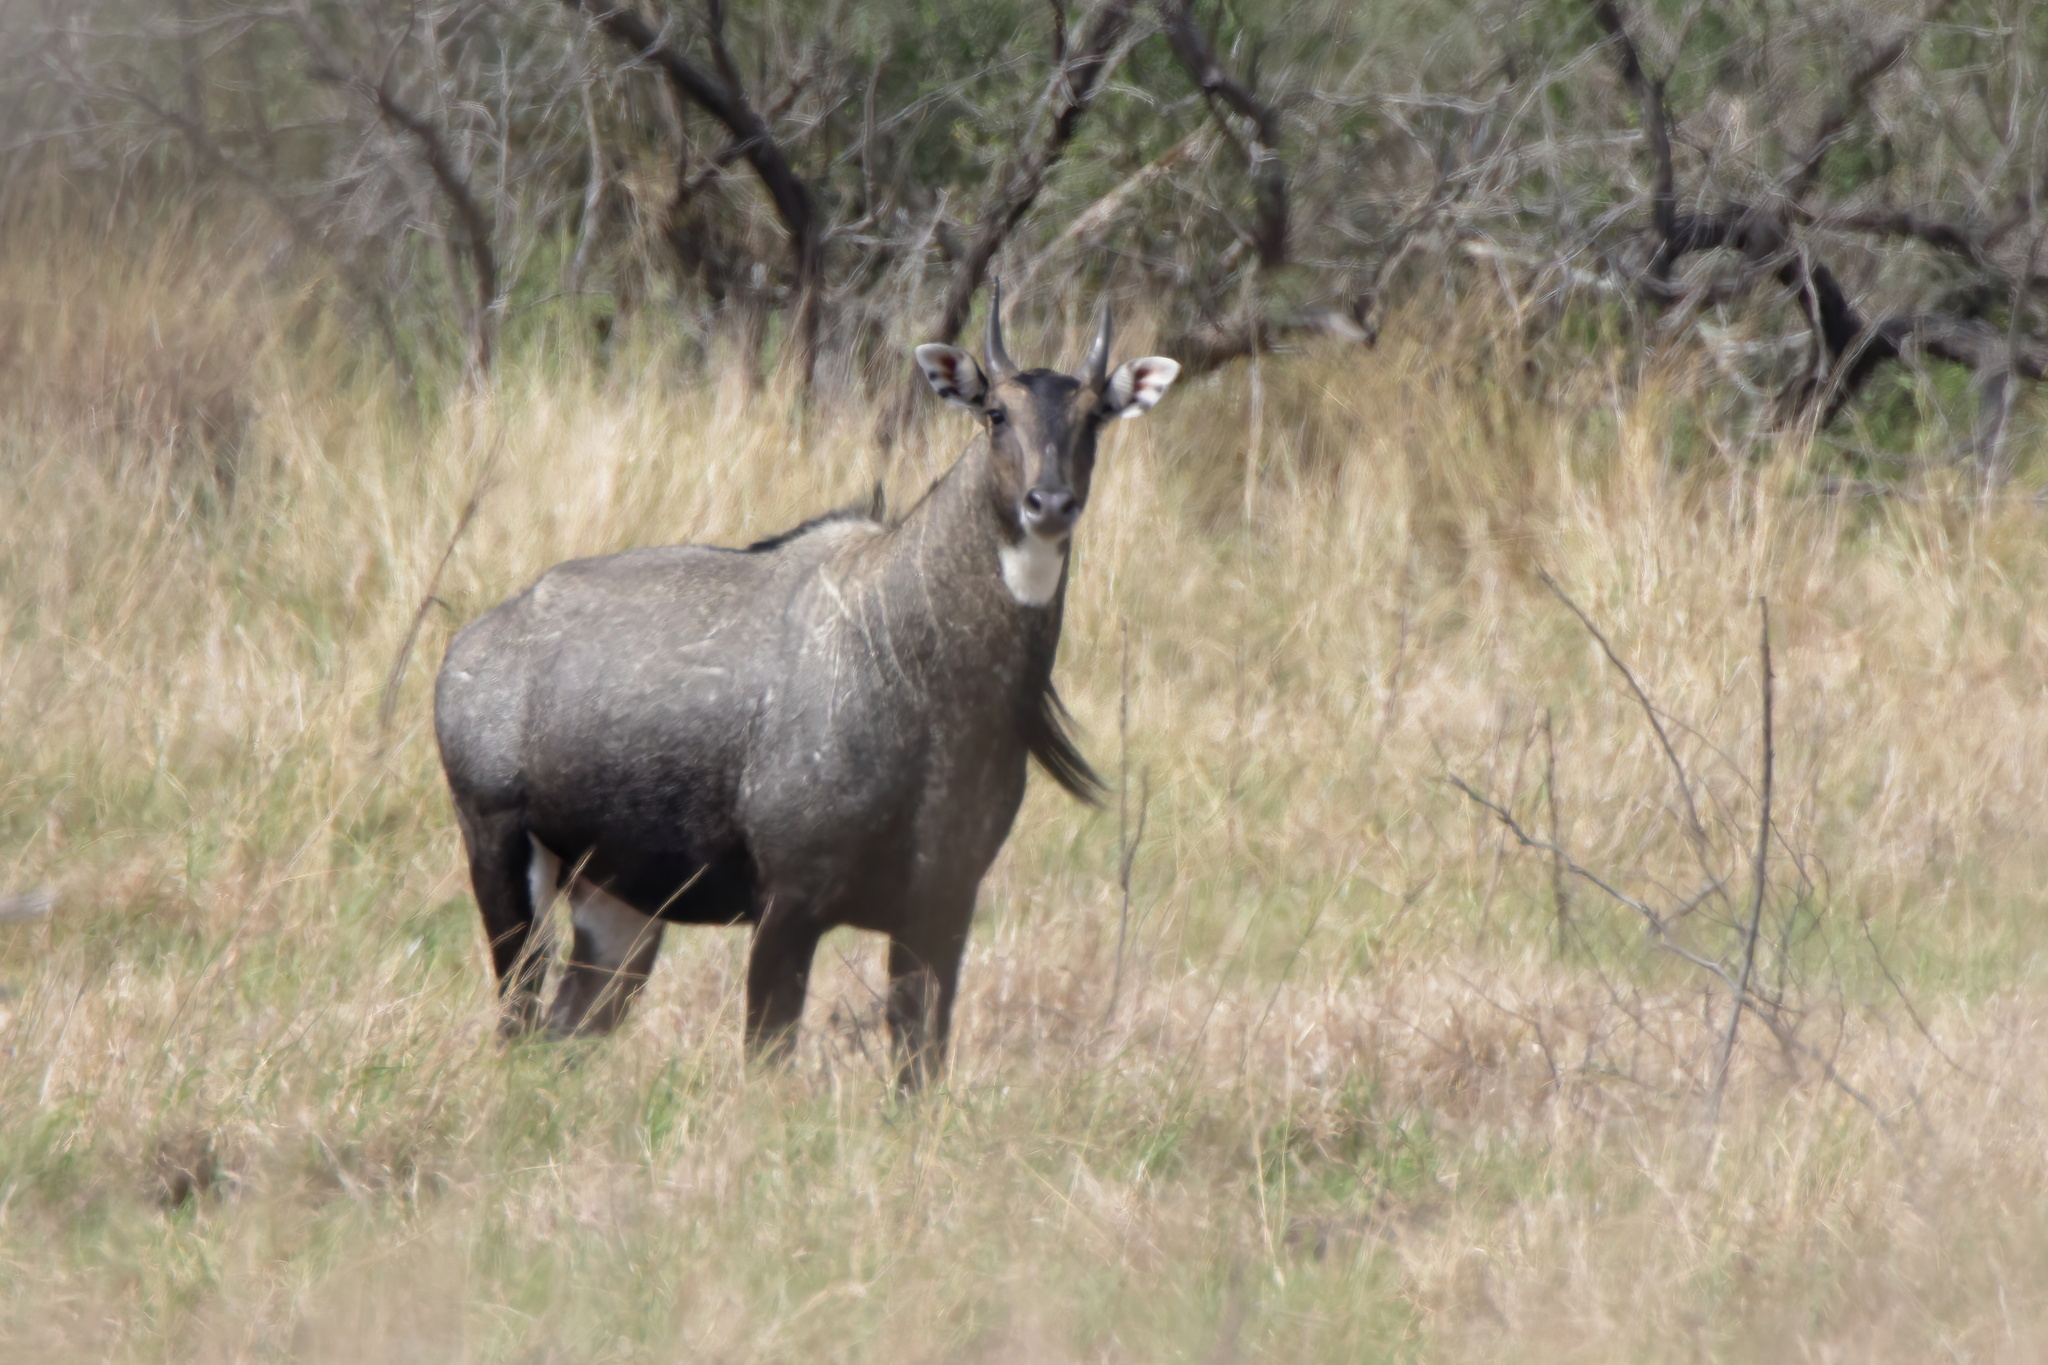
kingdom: Animalia
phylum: Chordata
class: Mammalia
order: Artiodactyla
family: Bovidae
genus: Boselaphus
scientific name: Boselaphus tragocamelus
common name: Nilgai
